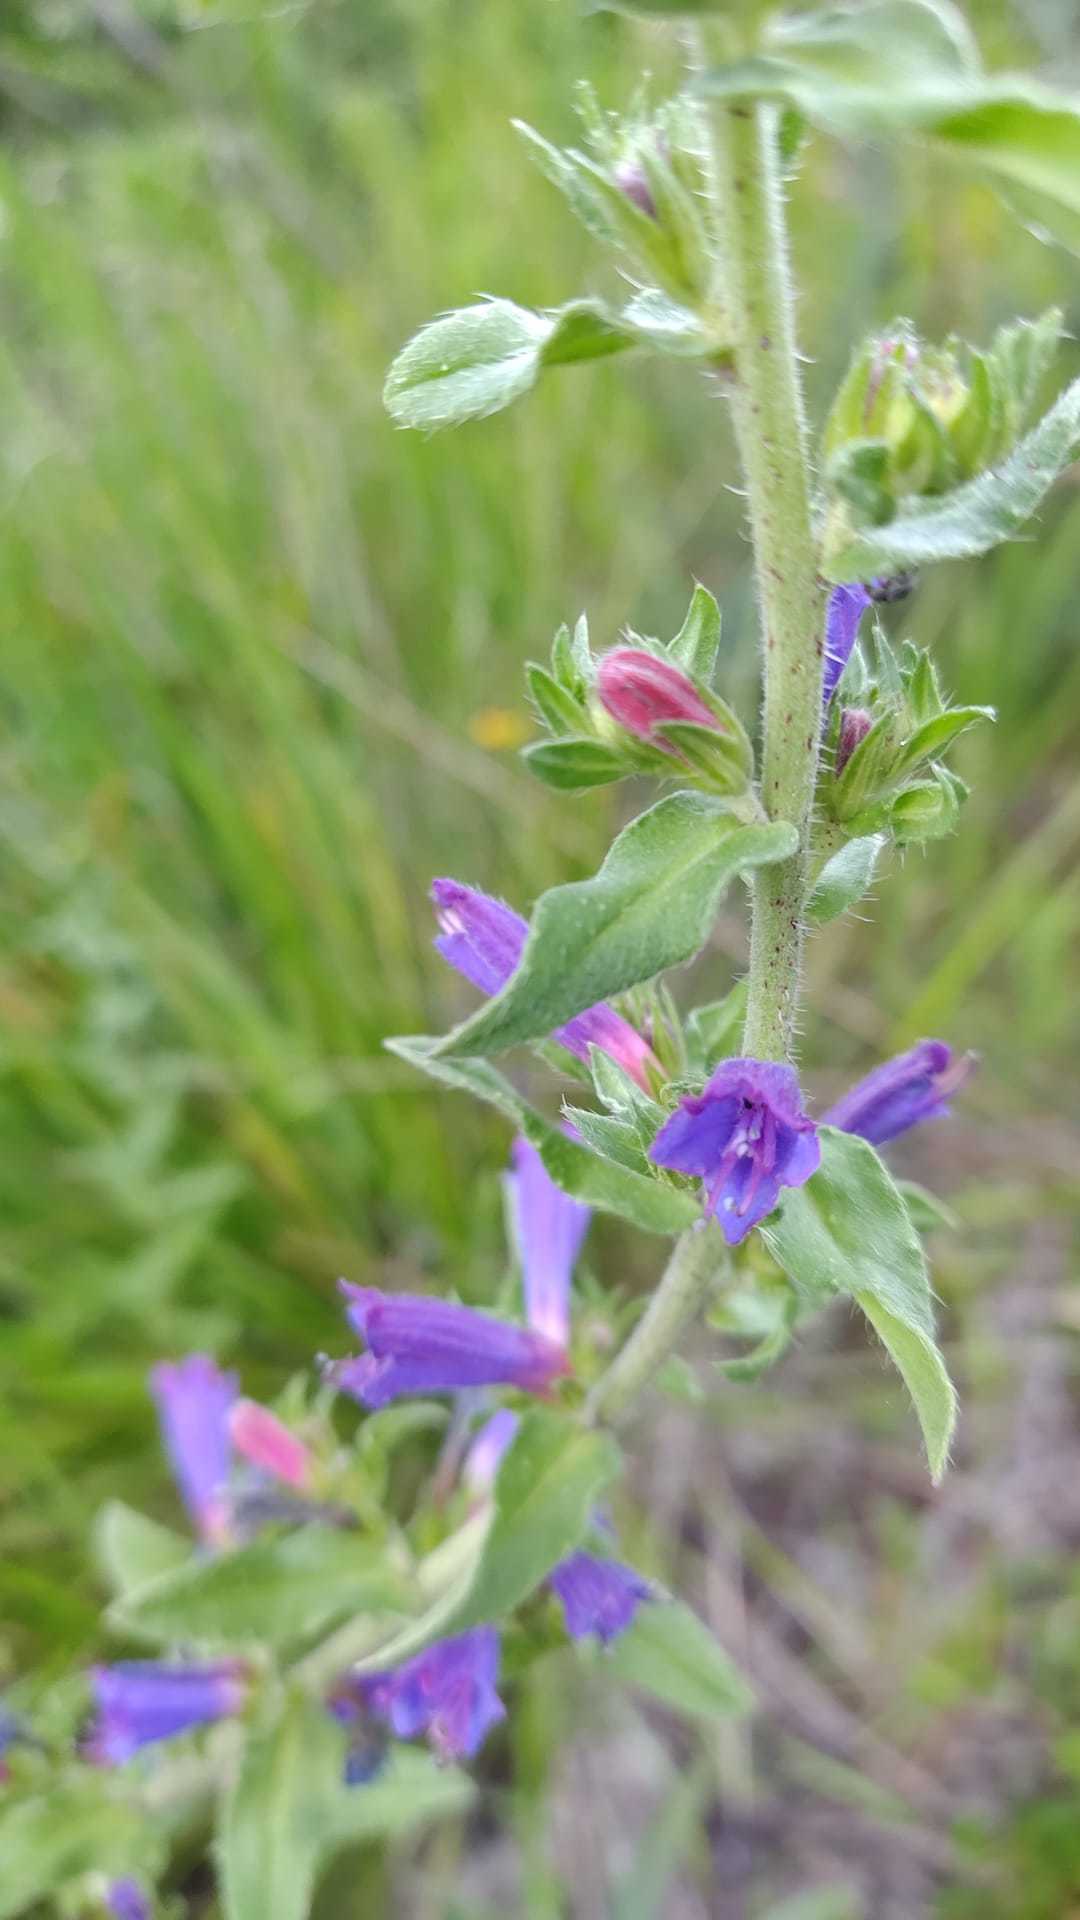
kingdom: Plantae
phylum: Tracheophyta
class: Magnoliopsida
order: Boraginales
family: Boraginaceae
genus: Echium
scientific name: Echium rosulatum
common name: Lax viper's-bugloss
